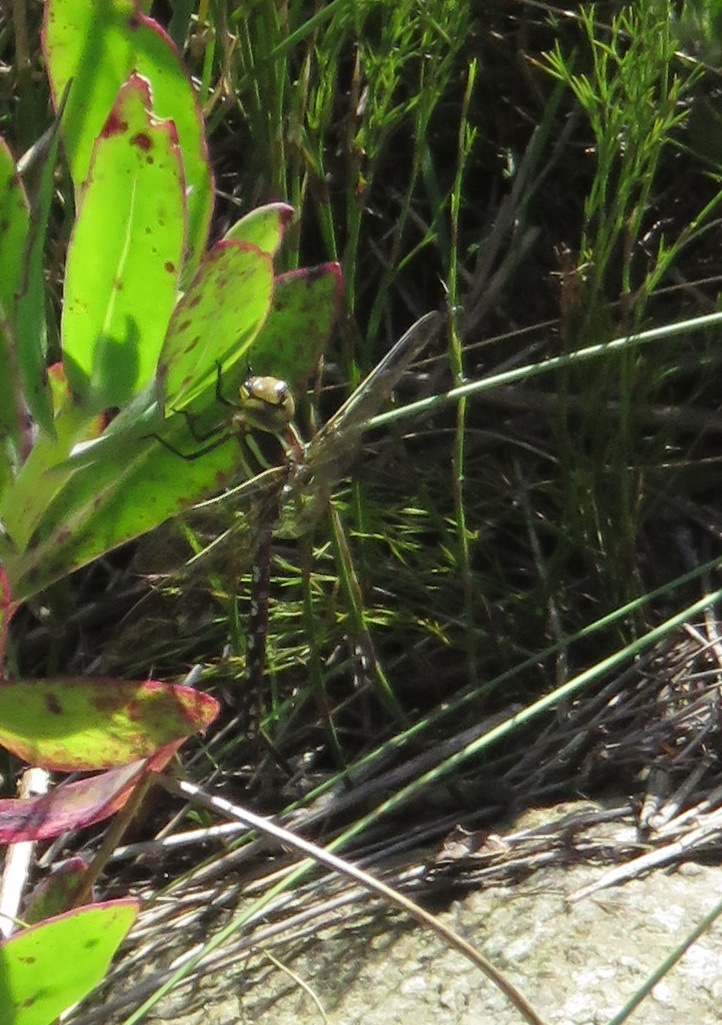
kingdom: Animalia
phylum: Arthropoda
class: Insecta
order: Odonata
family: Aeshnidae
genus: Zosteraeschna
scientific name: Zosteraeschna minuscula
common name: Friendly hawker
